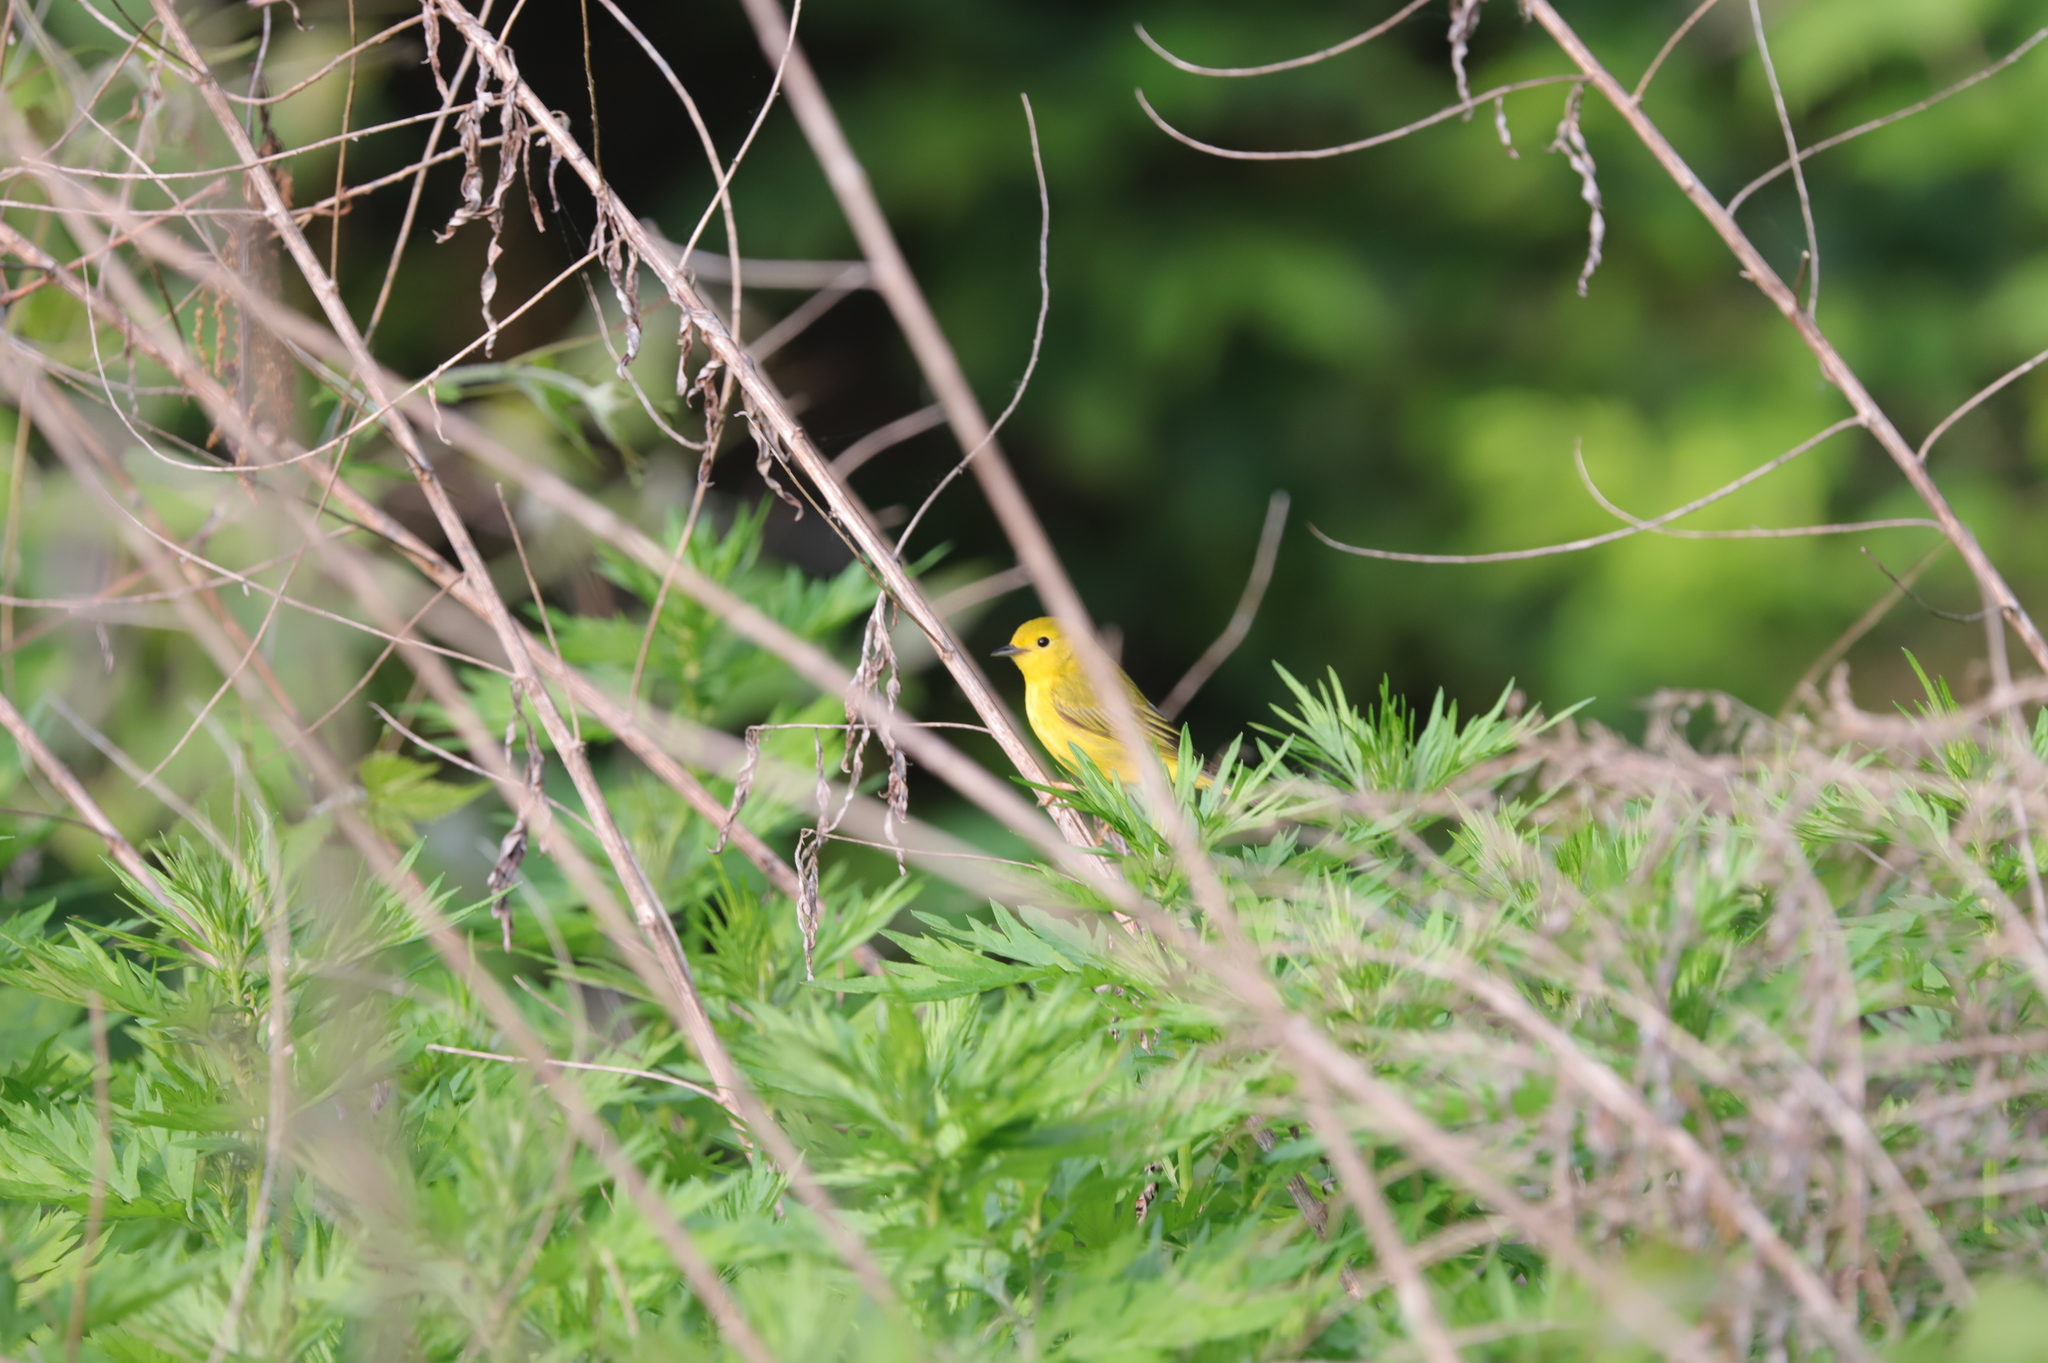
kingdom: Animalia
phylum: Chordata
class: Aves
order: Passeriformes
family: Parulidae
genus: Setophaga
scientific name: Setophaga petechia
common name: Yellow warbler
